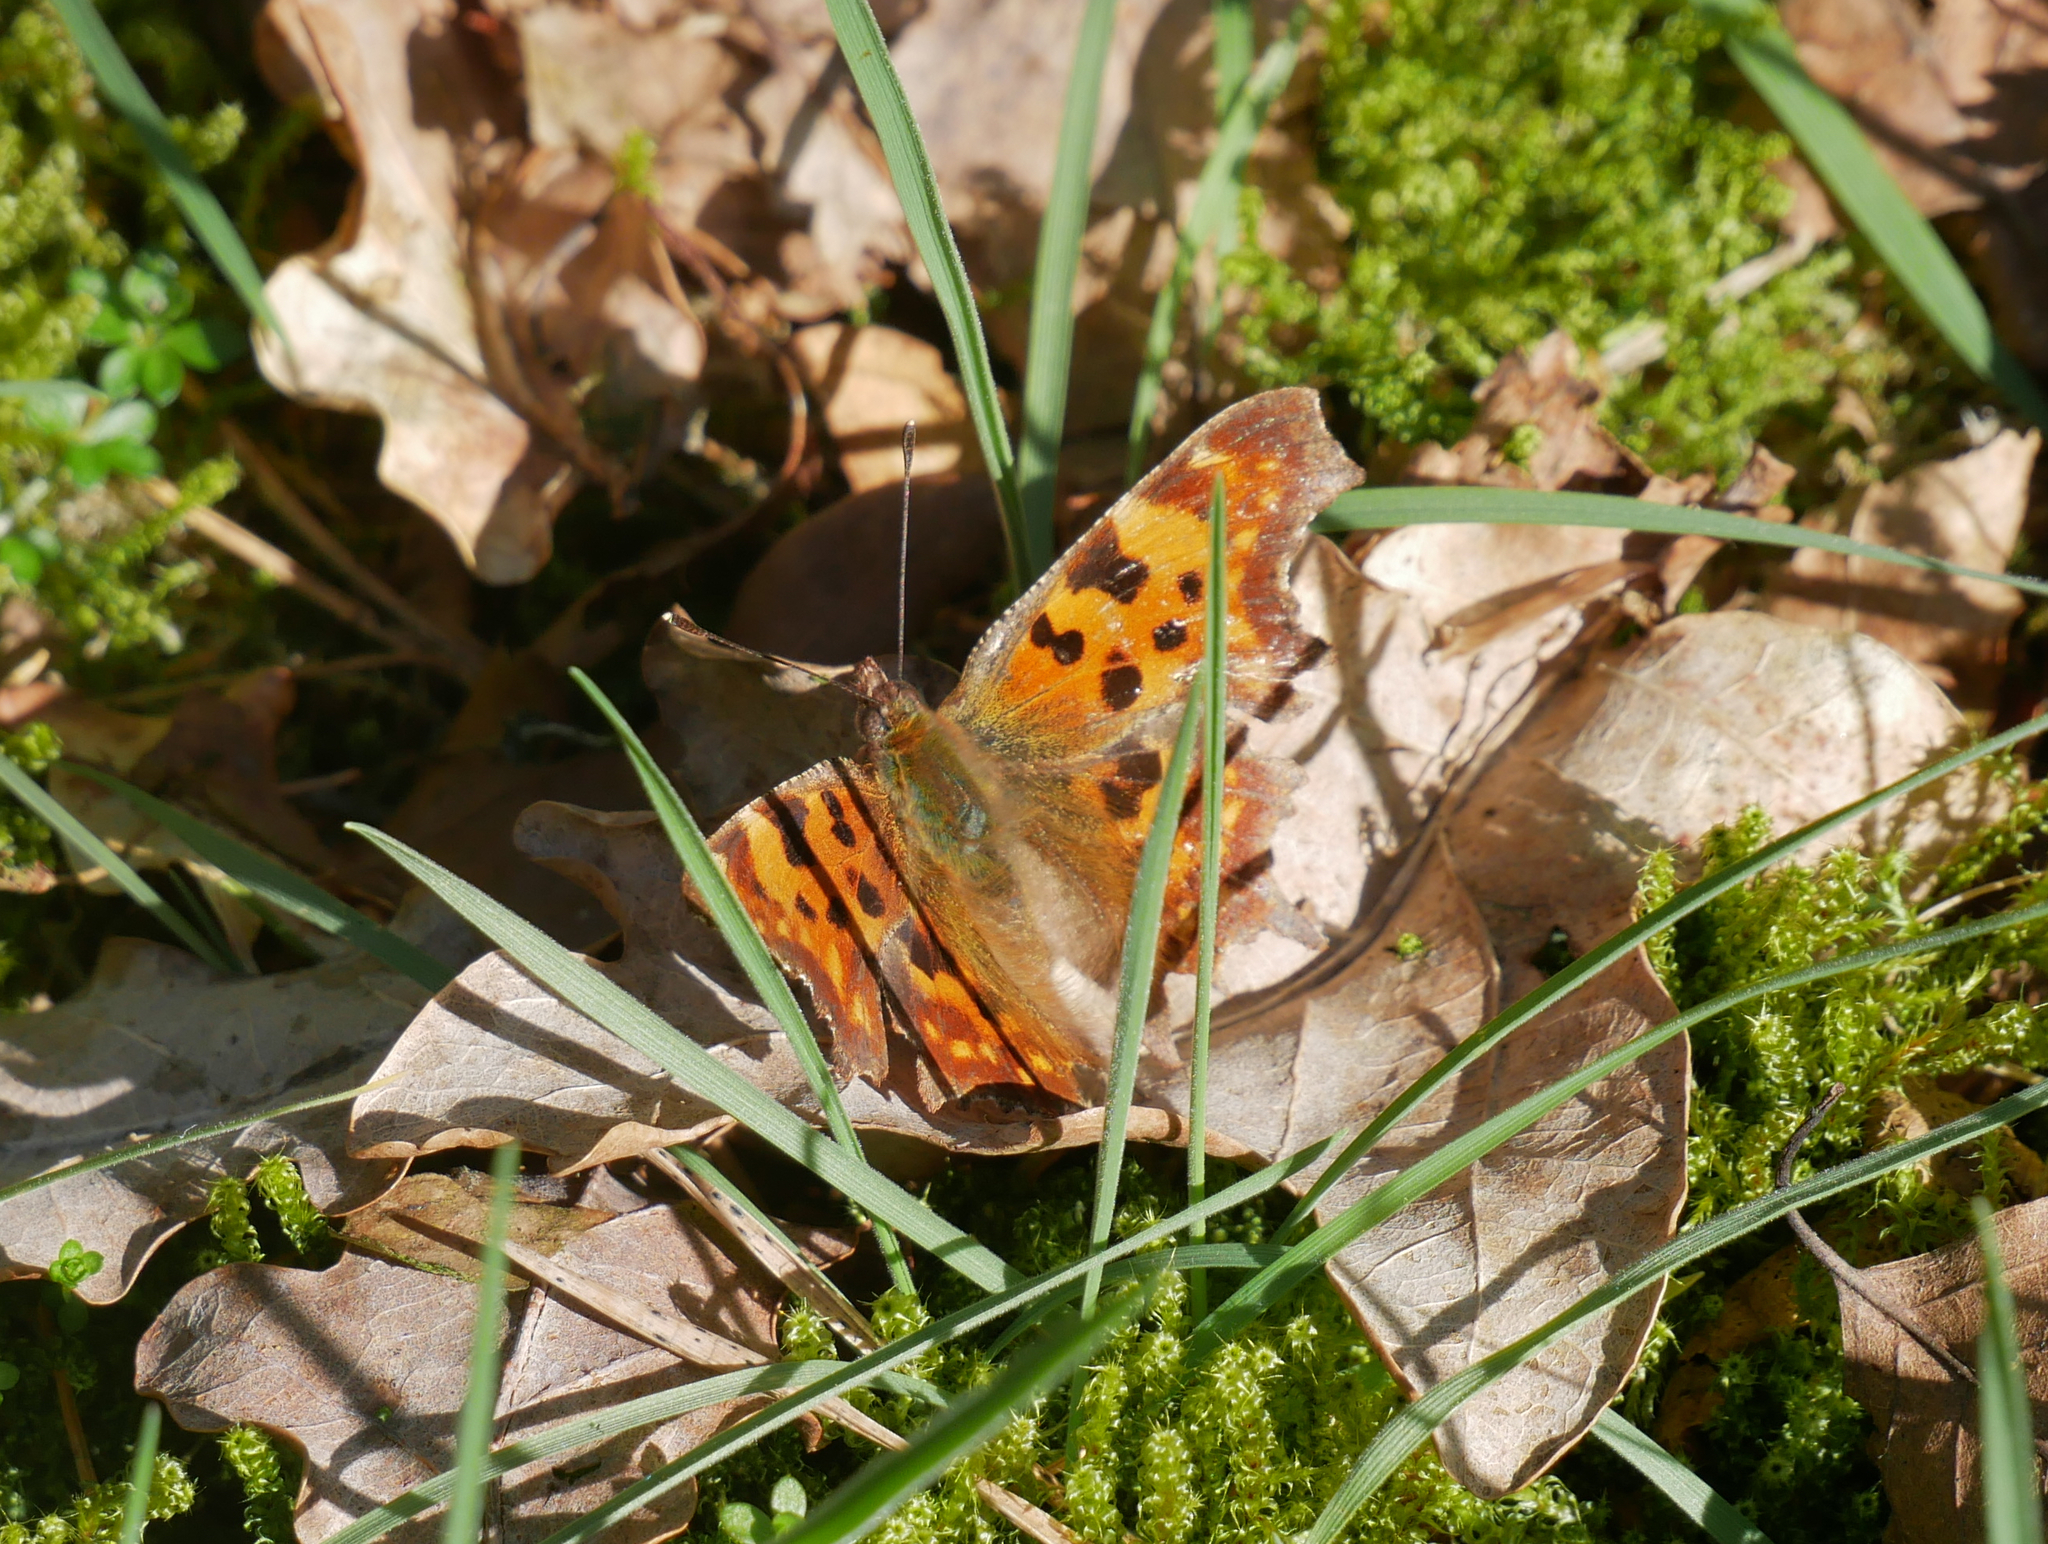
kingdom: Animalia
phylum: Arthropoda
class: Insecta
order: Lepidoptera
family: Nymphalidae
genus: Polygonia
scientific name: Polygonia c-album
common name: Comma
